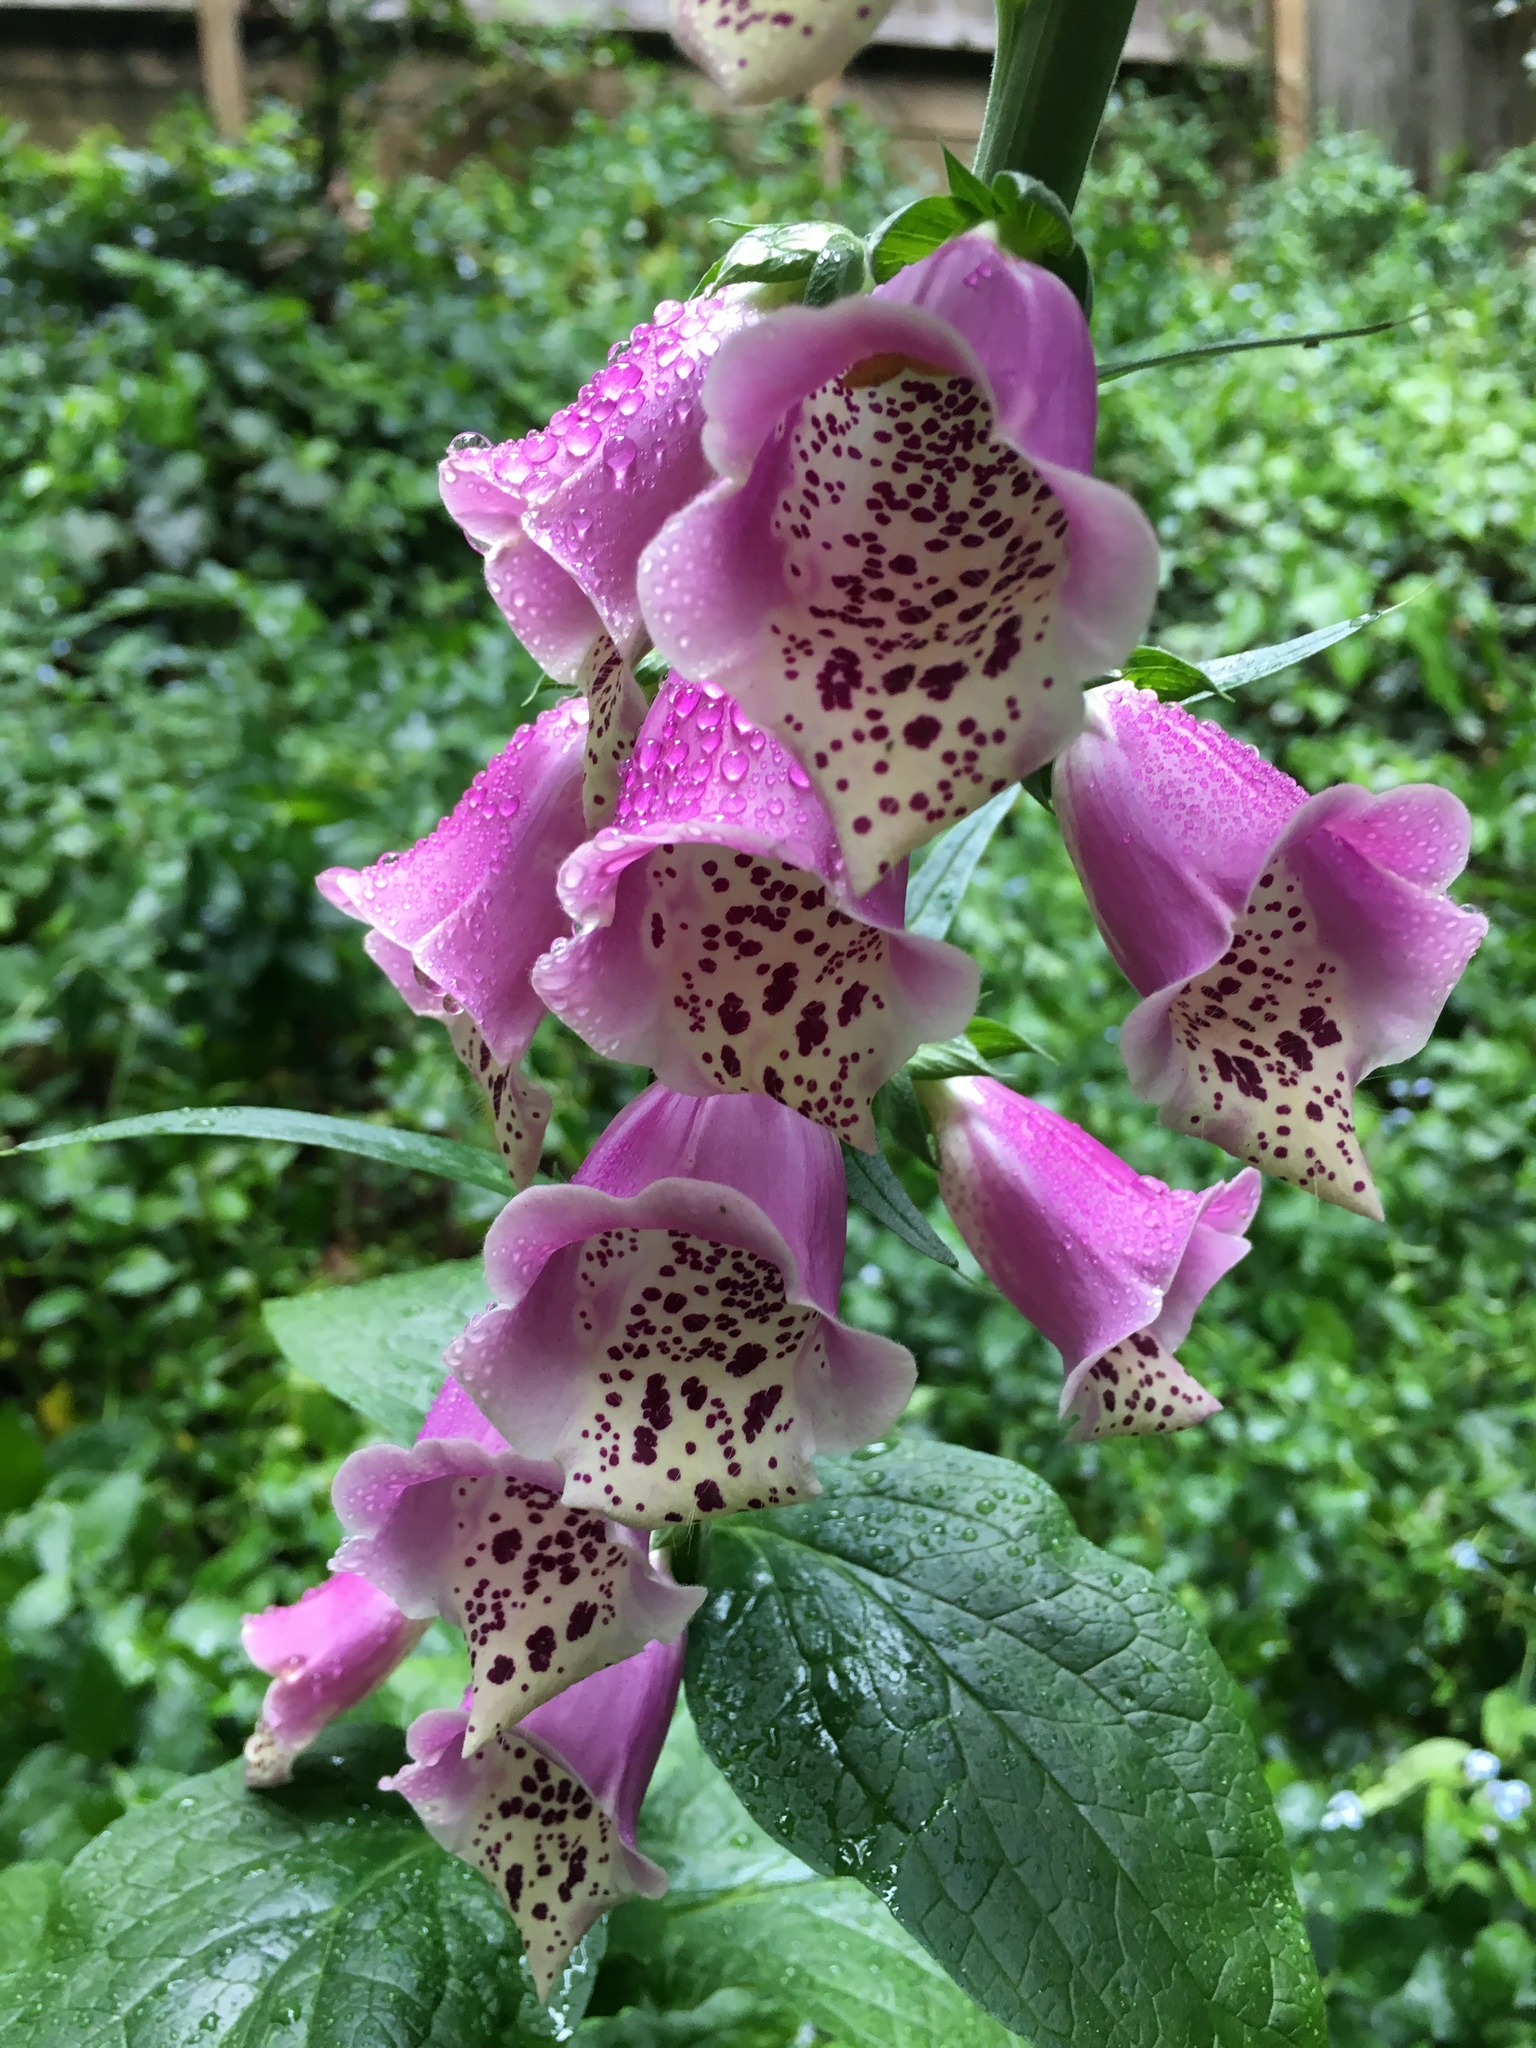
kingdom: Plantae
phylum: Tracheophyta
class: Magnoliopsida
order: Lamiales
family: Plantaginaceae
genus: Digitalis
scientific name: Digitalis purpurea
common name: Foxglove
